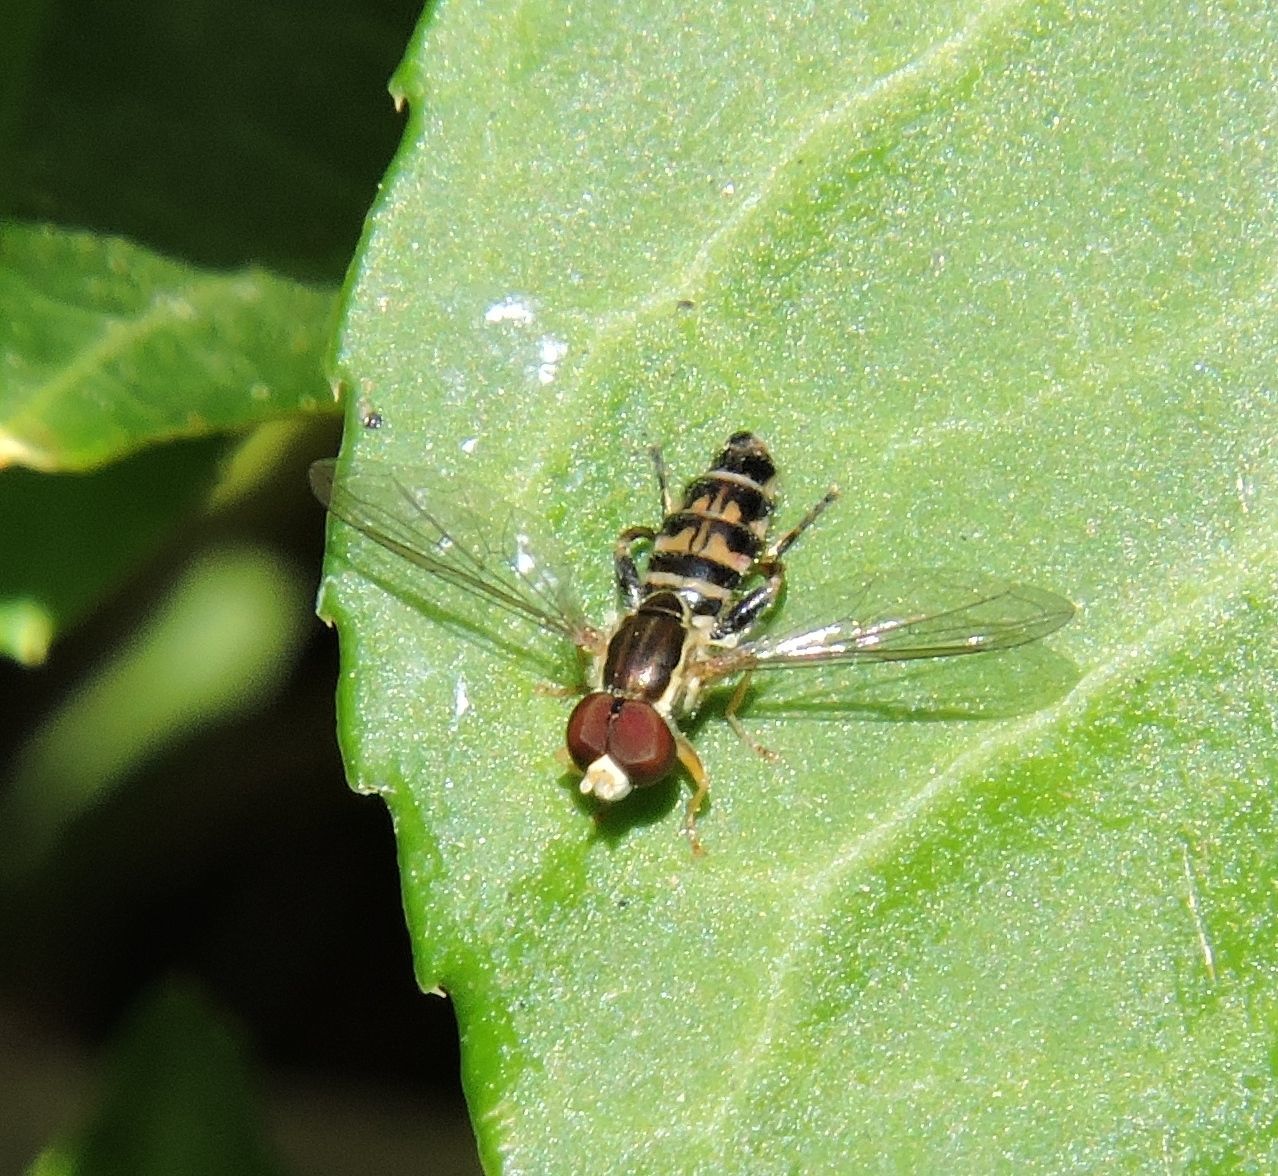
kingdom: Animalia
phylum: Arthropoda
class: Insecta
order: Diptera
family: Syrphidae
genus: Toxomerus
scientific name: Toxomerus geminatus
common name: Eastern calligrapher
